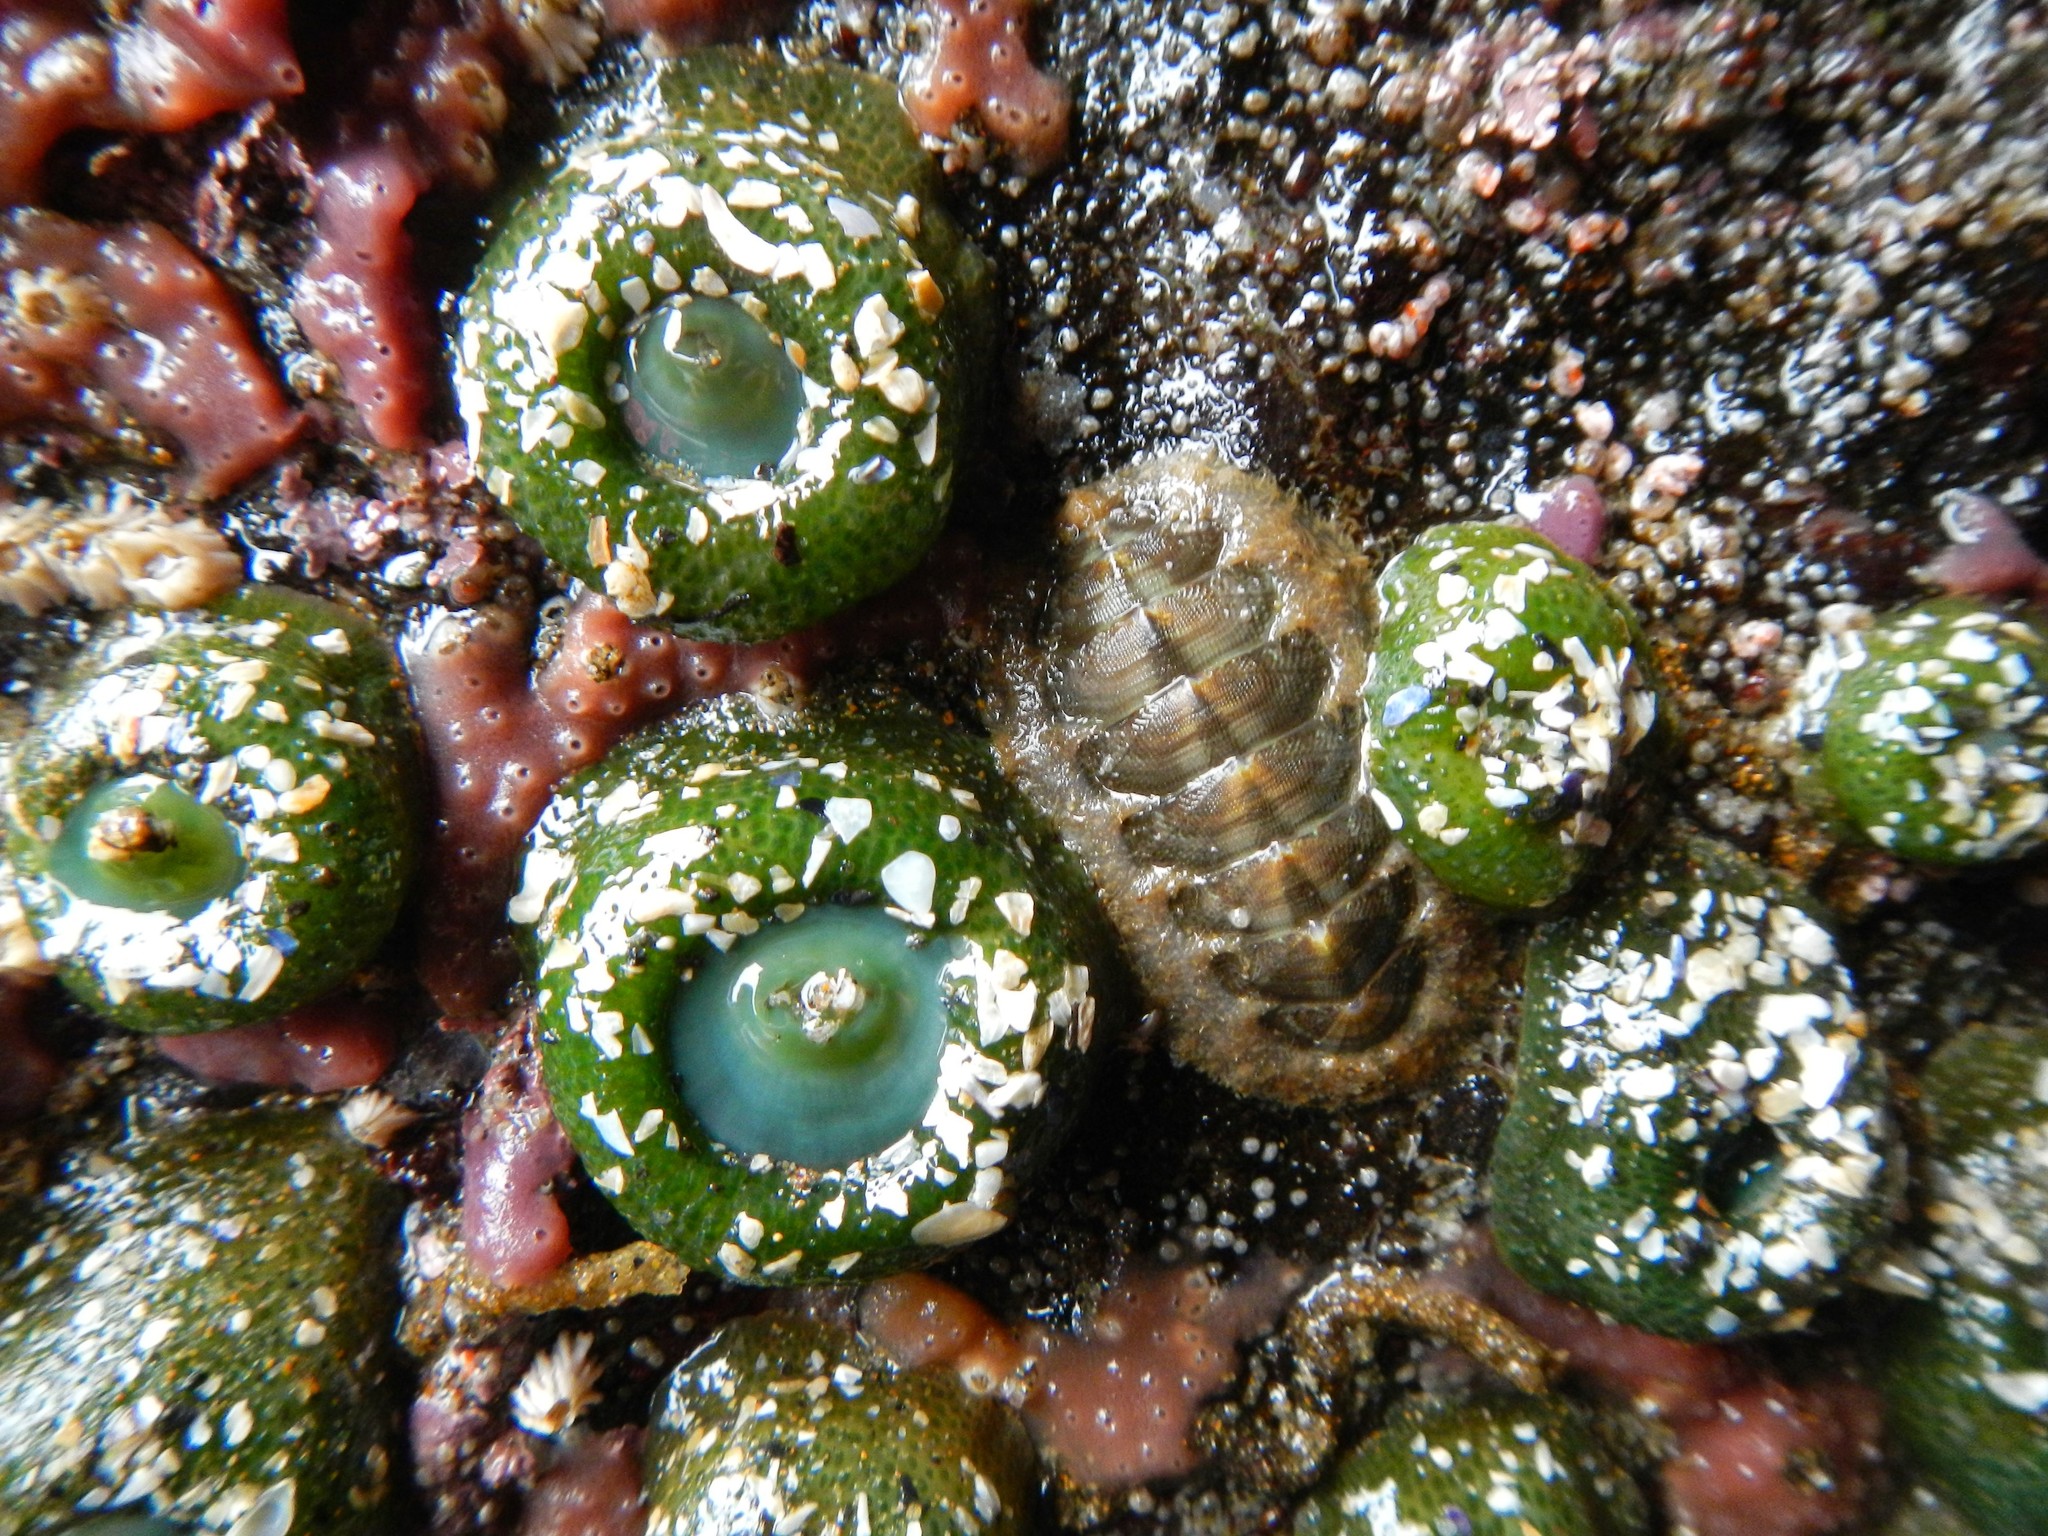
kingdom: Animalia
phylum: Mollusca
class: Polyplacophora
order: Chitonida
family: Mopaliidae
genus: Mopalia
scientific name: Mopalia ciliata
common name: Hairy chiton
